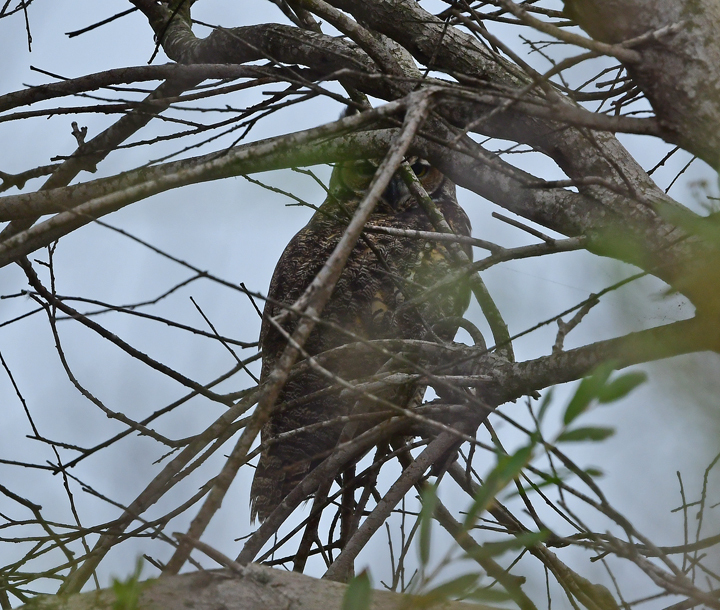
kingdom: Animalia
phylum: Chordata
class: Aves
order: Strigiformes
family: Strigidae
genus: Bubo
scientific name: Bubo virginianus
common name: Great horned owl
